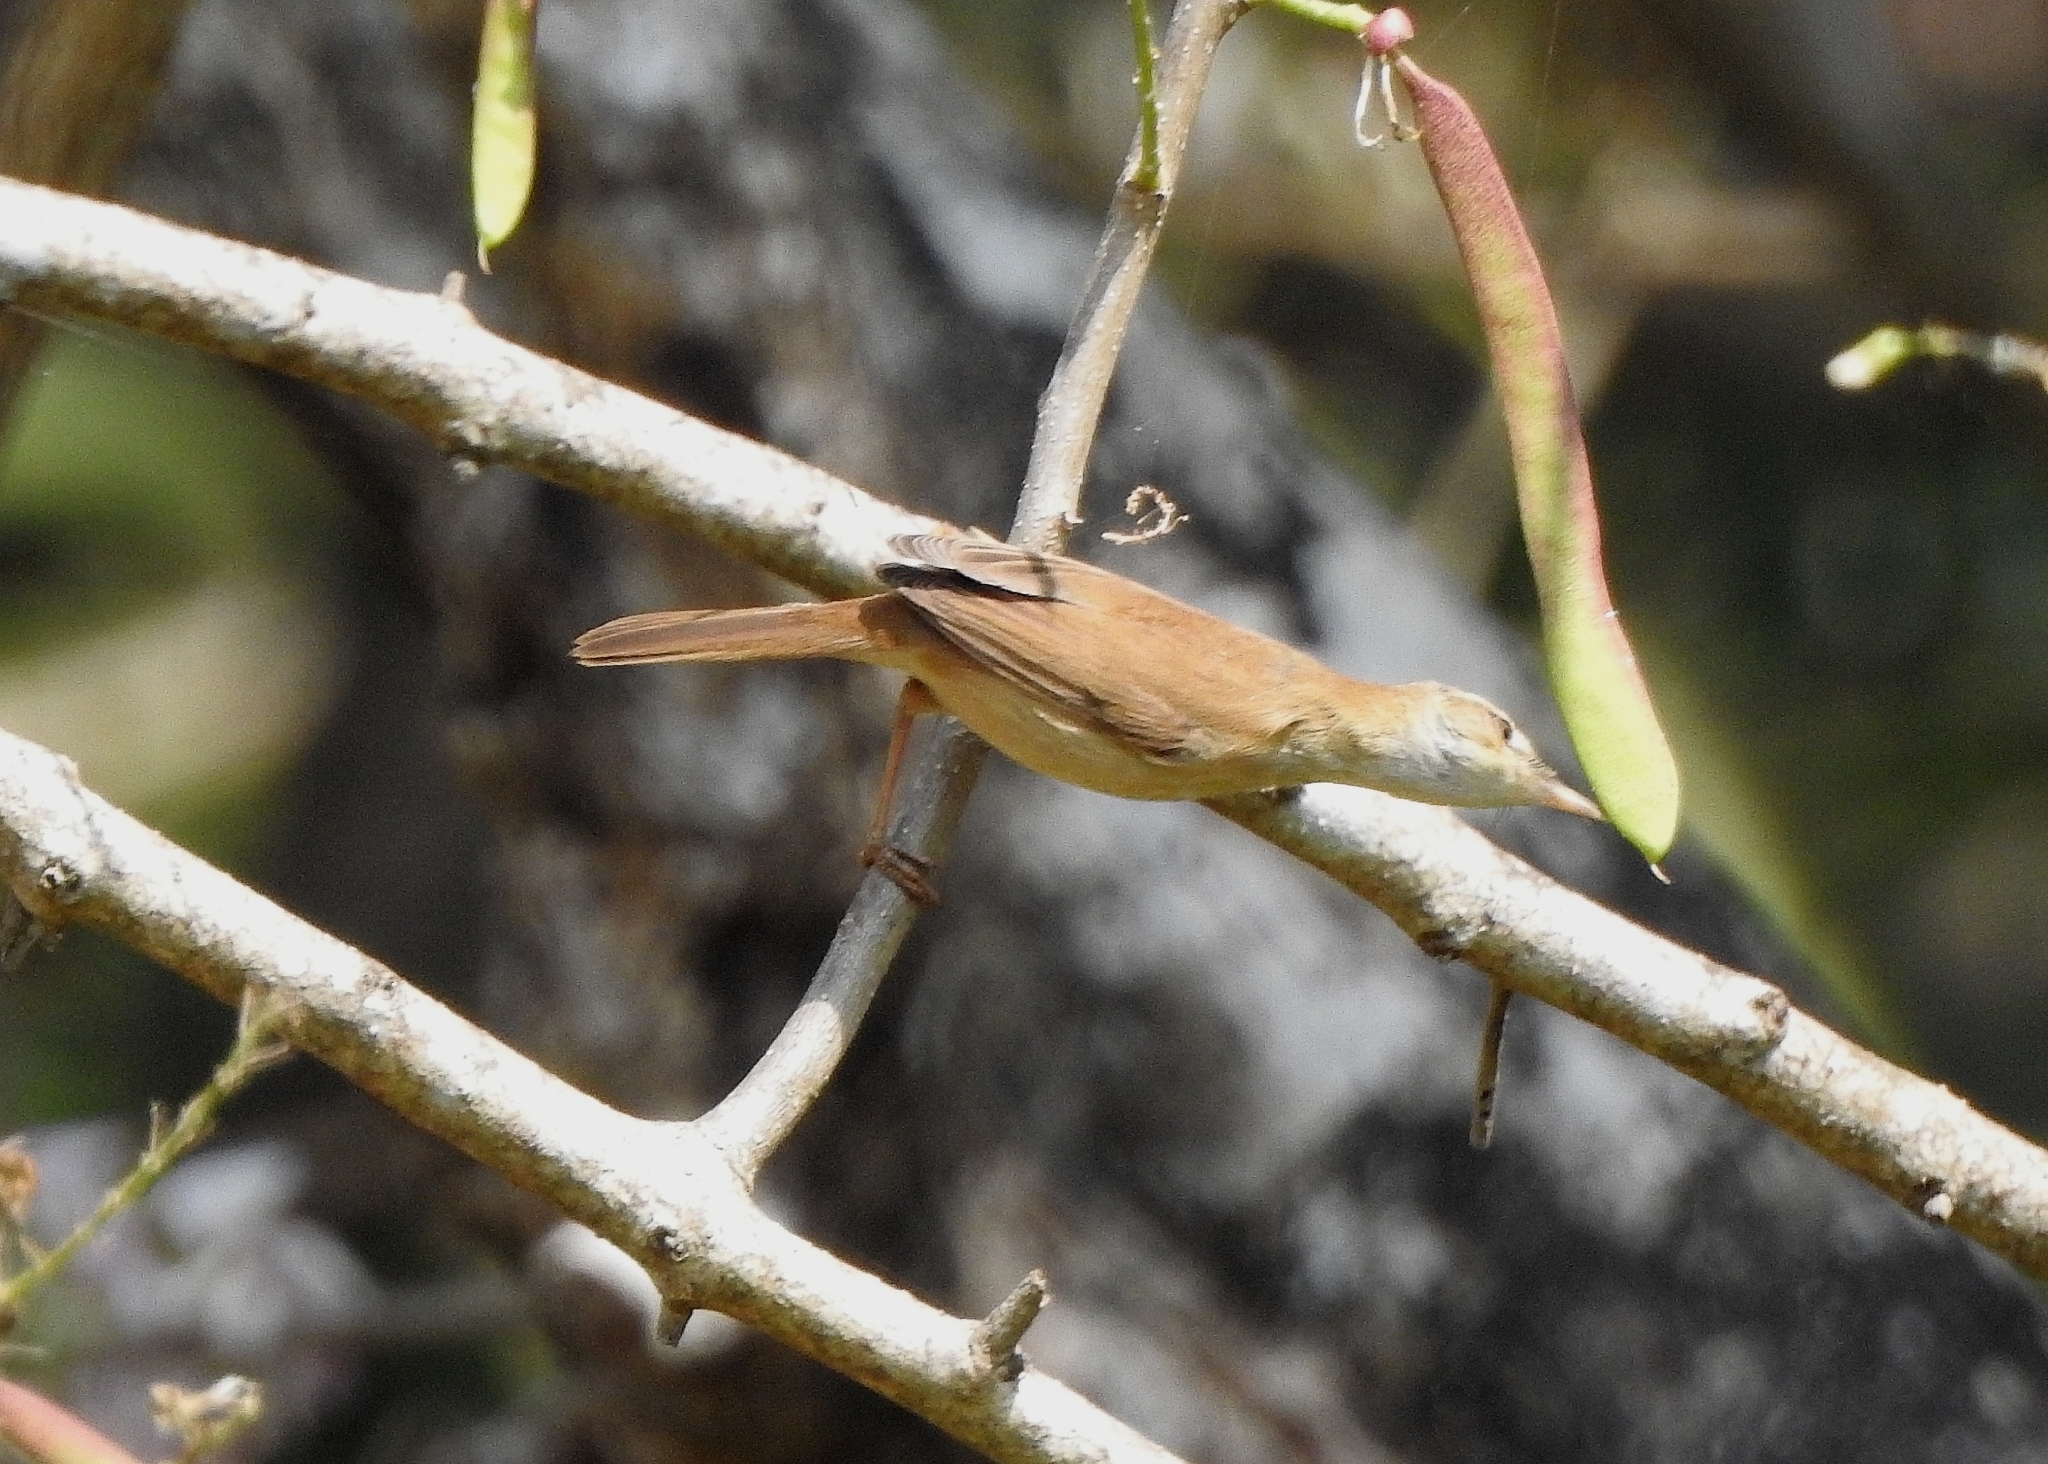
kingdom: Animalia
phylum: Chordata
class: Aves
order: Passeriformes
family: Acrocephalidae
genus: Acrocephalus
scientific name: Acrocephalus agricola
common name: Paddyfield warbler
